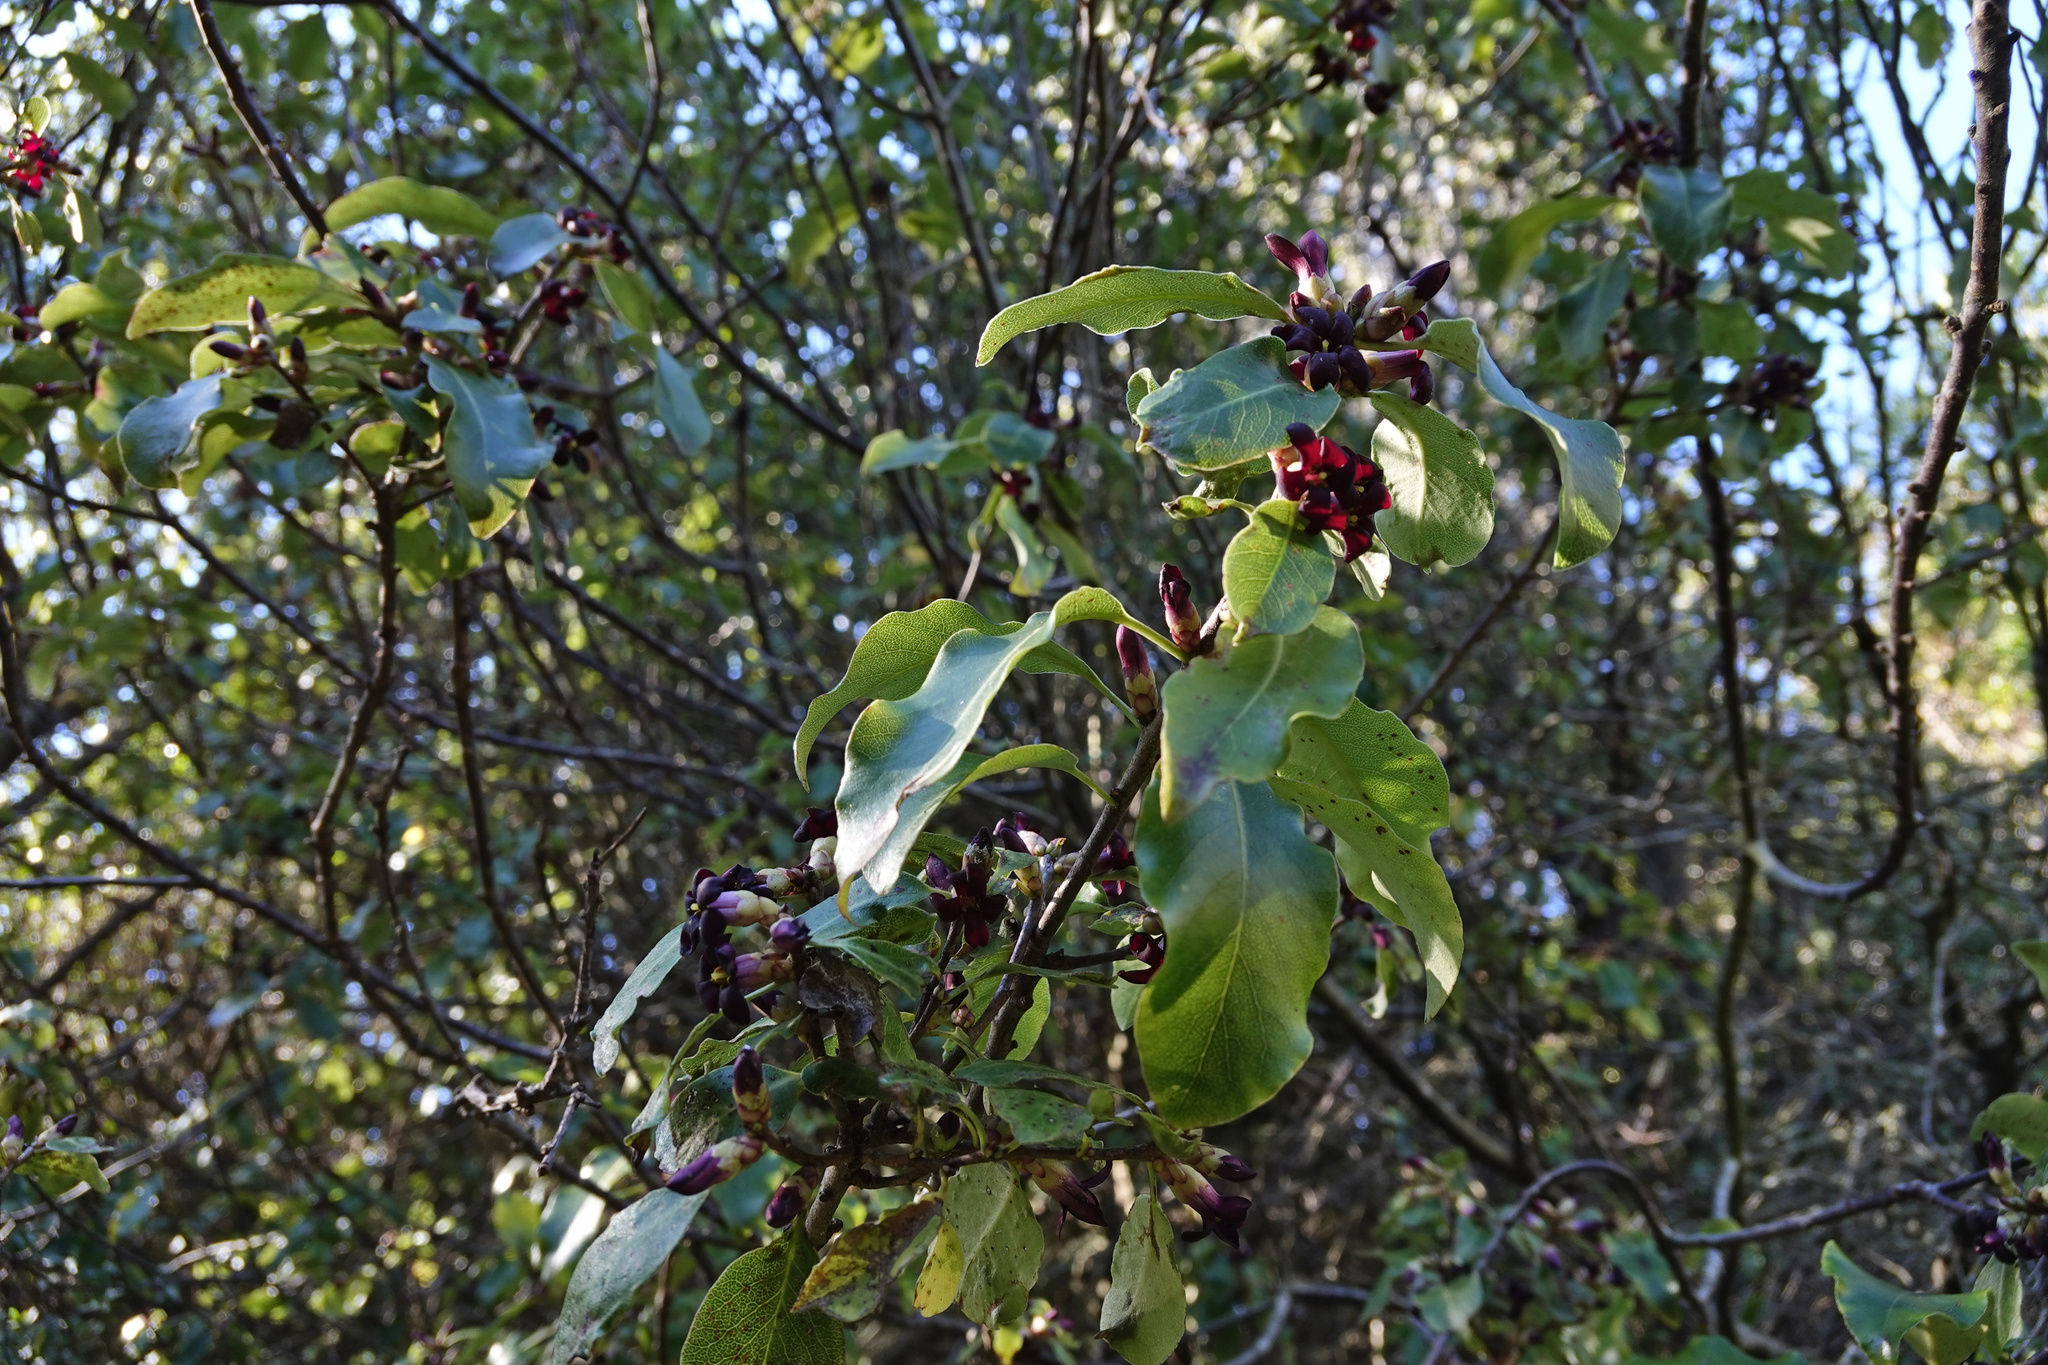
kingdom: Plantae
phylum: Tracheophyta
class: Magnoliopsida
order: Apiales
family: Pittosporaceae
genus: Pittosporum
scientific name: Pittosporum tenuifolium
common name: Kohuhu
